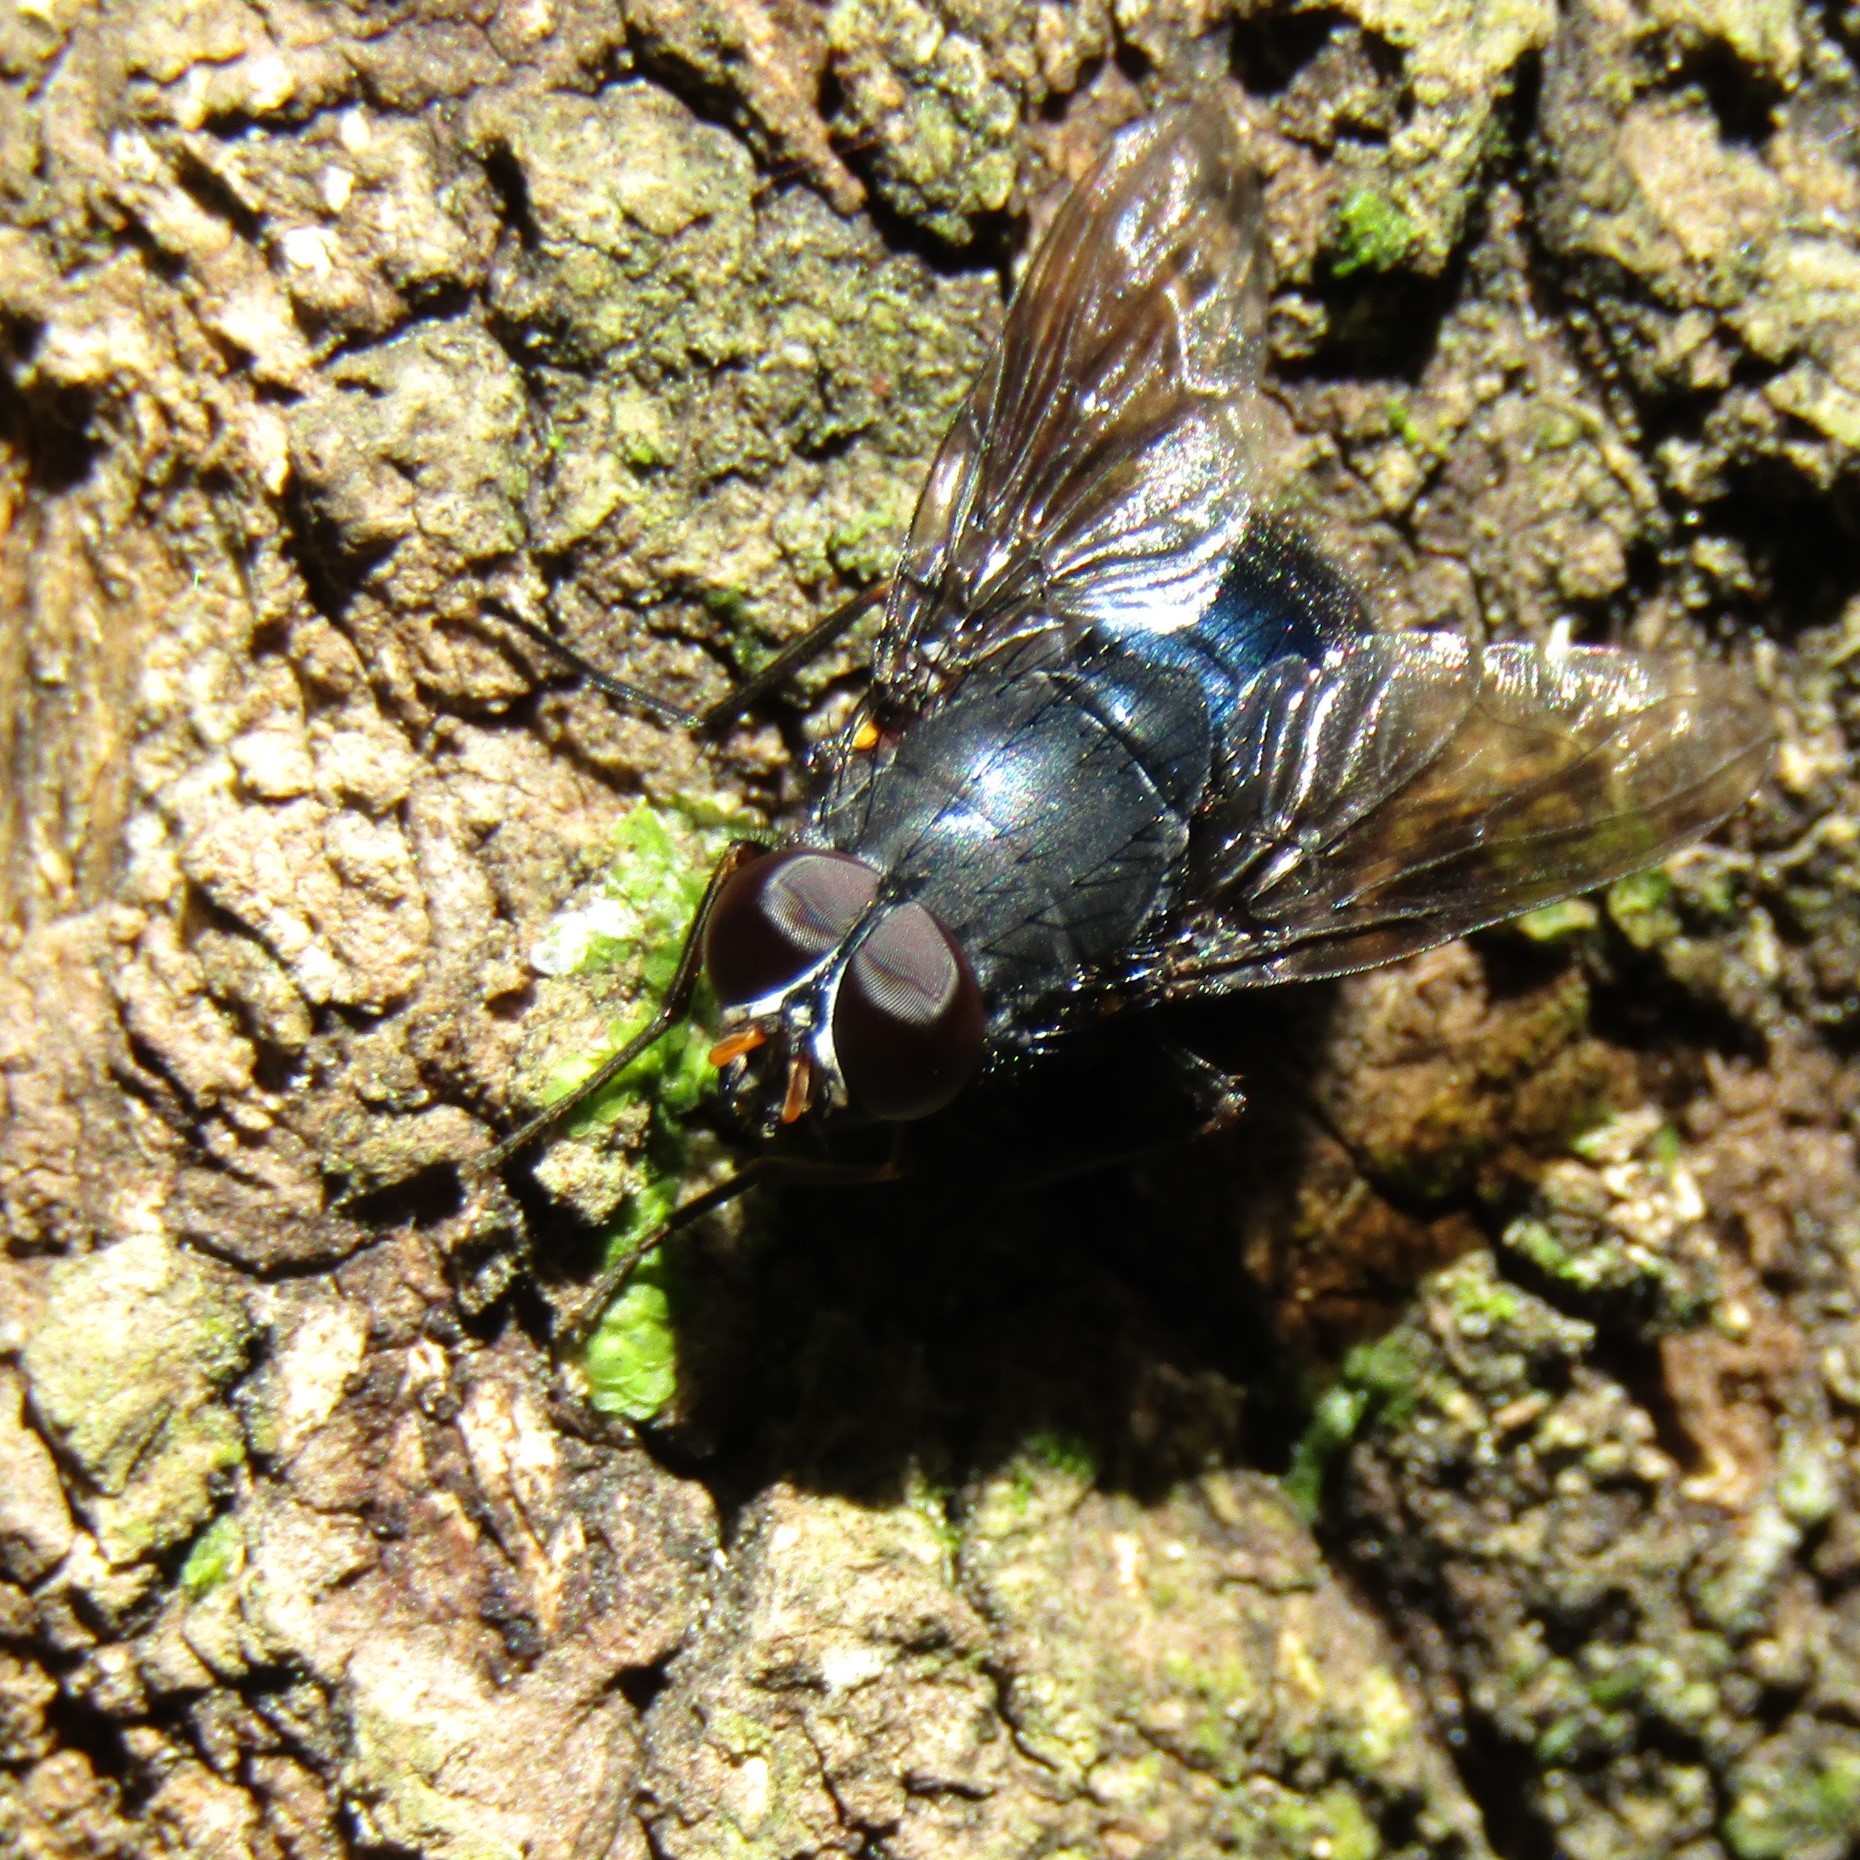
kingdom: Animalia
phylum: Arthropoda
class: Insecta
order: Diptera
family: Muscidae
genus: Calliphoroides
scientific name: Calliphoroides antennatis
